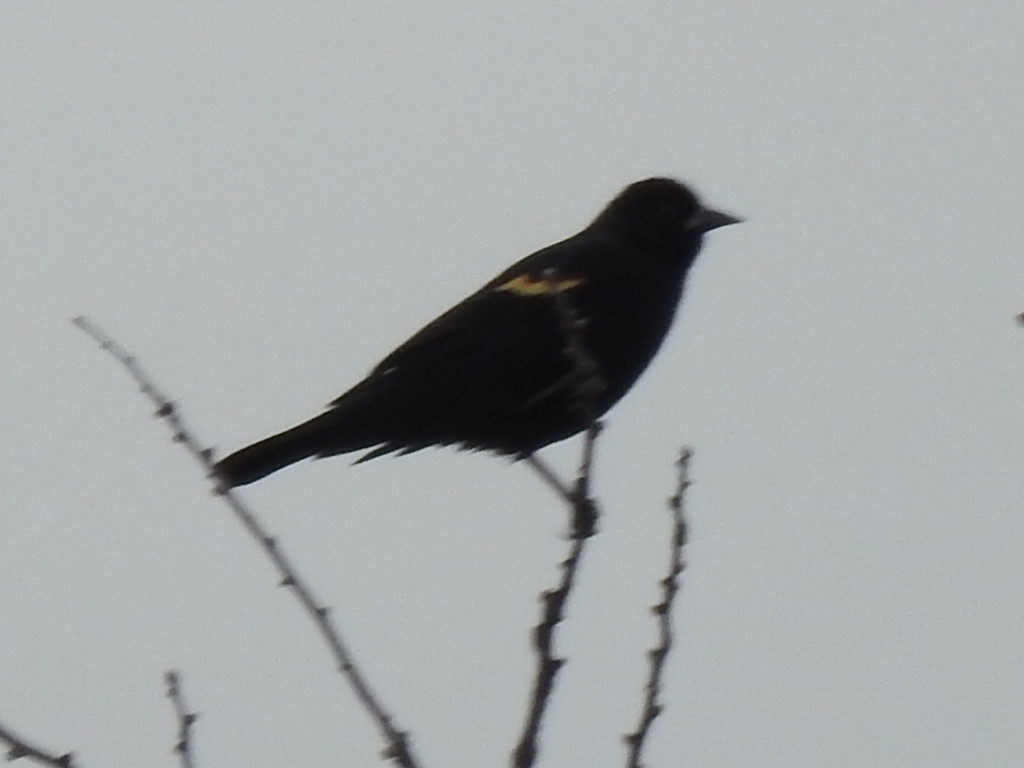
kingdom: Animalia
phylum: Chordata
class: Aves
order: Passeriformes
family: Icteridae
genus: Agelaius
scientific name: Agelaius phoeniceus
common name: Red-winged blackbird
